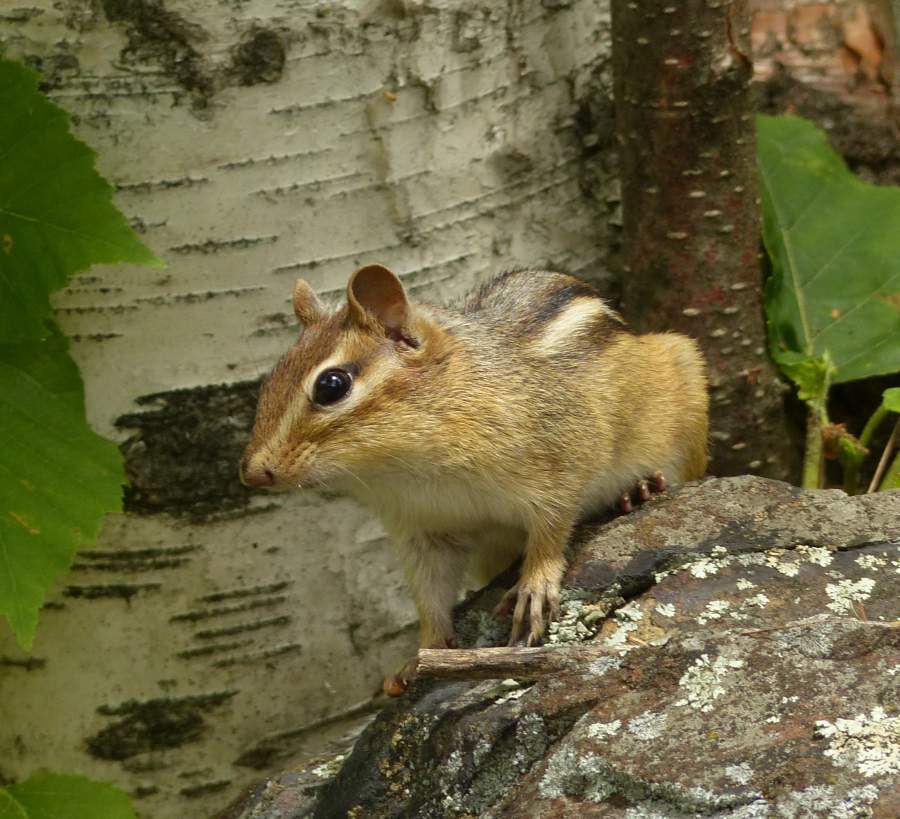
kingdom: Animalia
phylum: Chordata
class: Mammalia
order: Rodentia
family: Sciuridae
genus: Tamias
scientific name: Tamias striatus
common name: Eastern chipmunk
